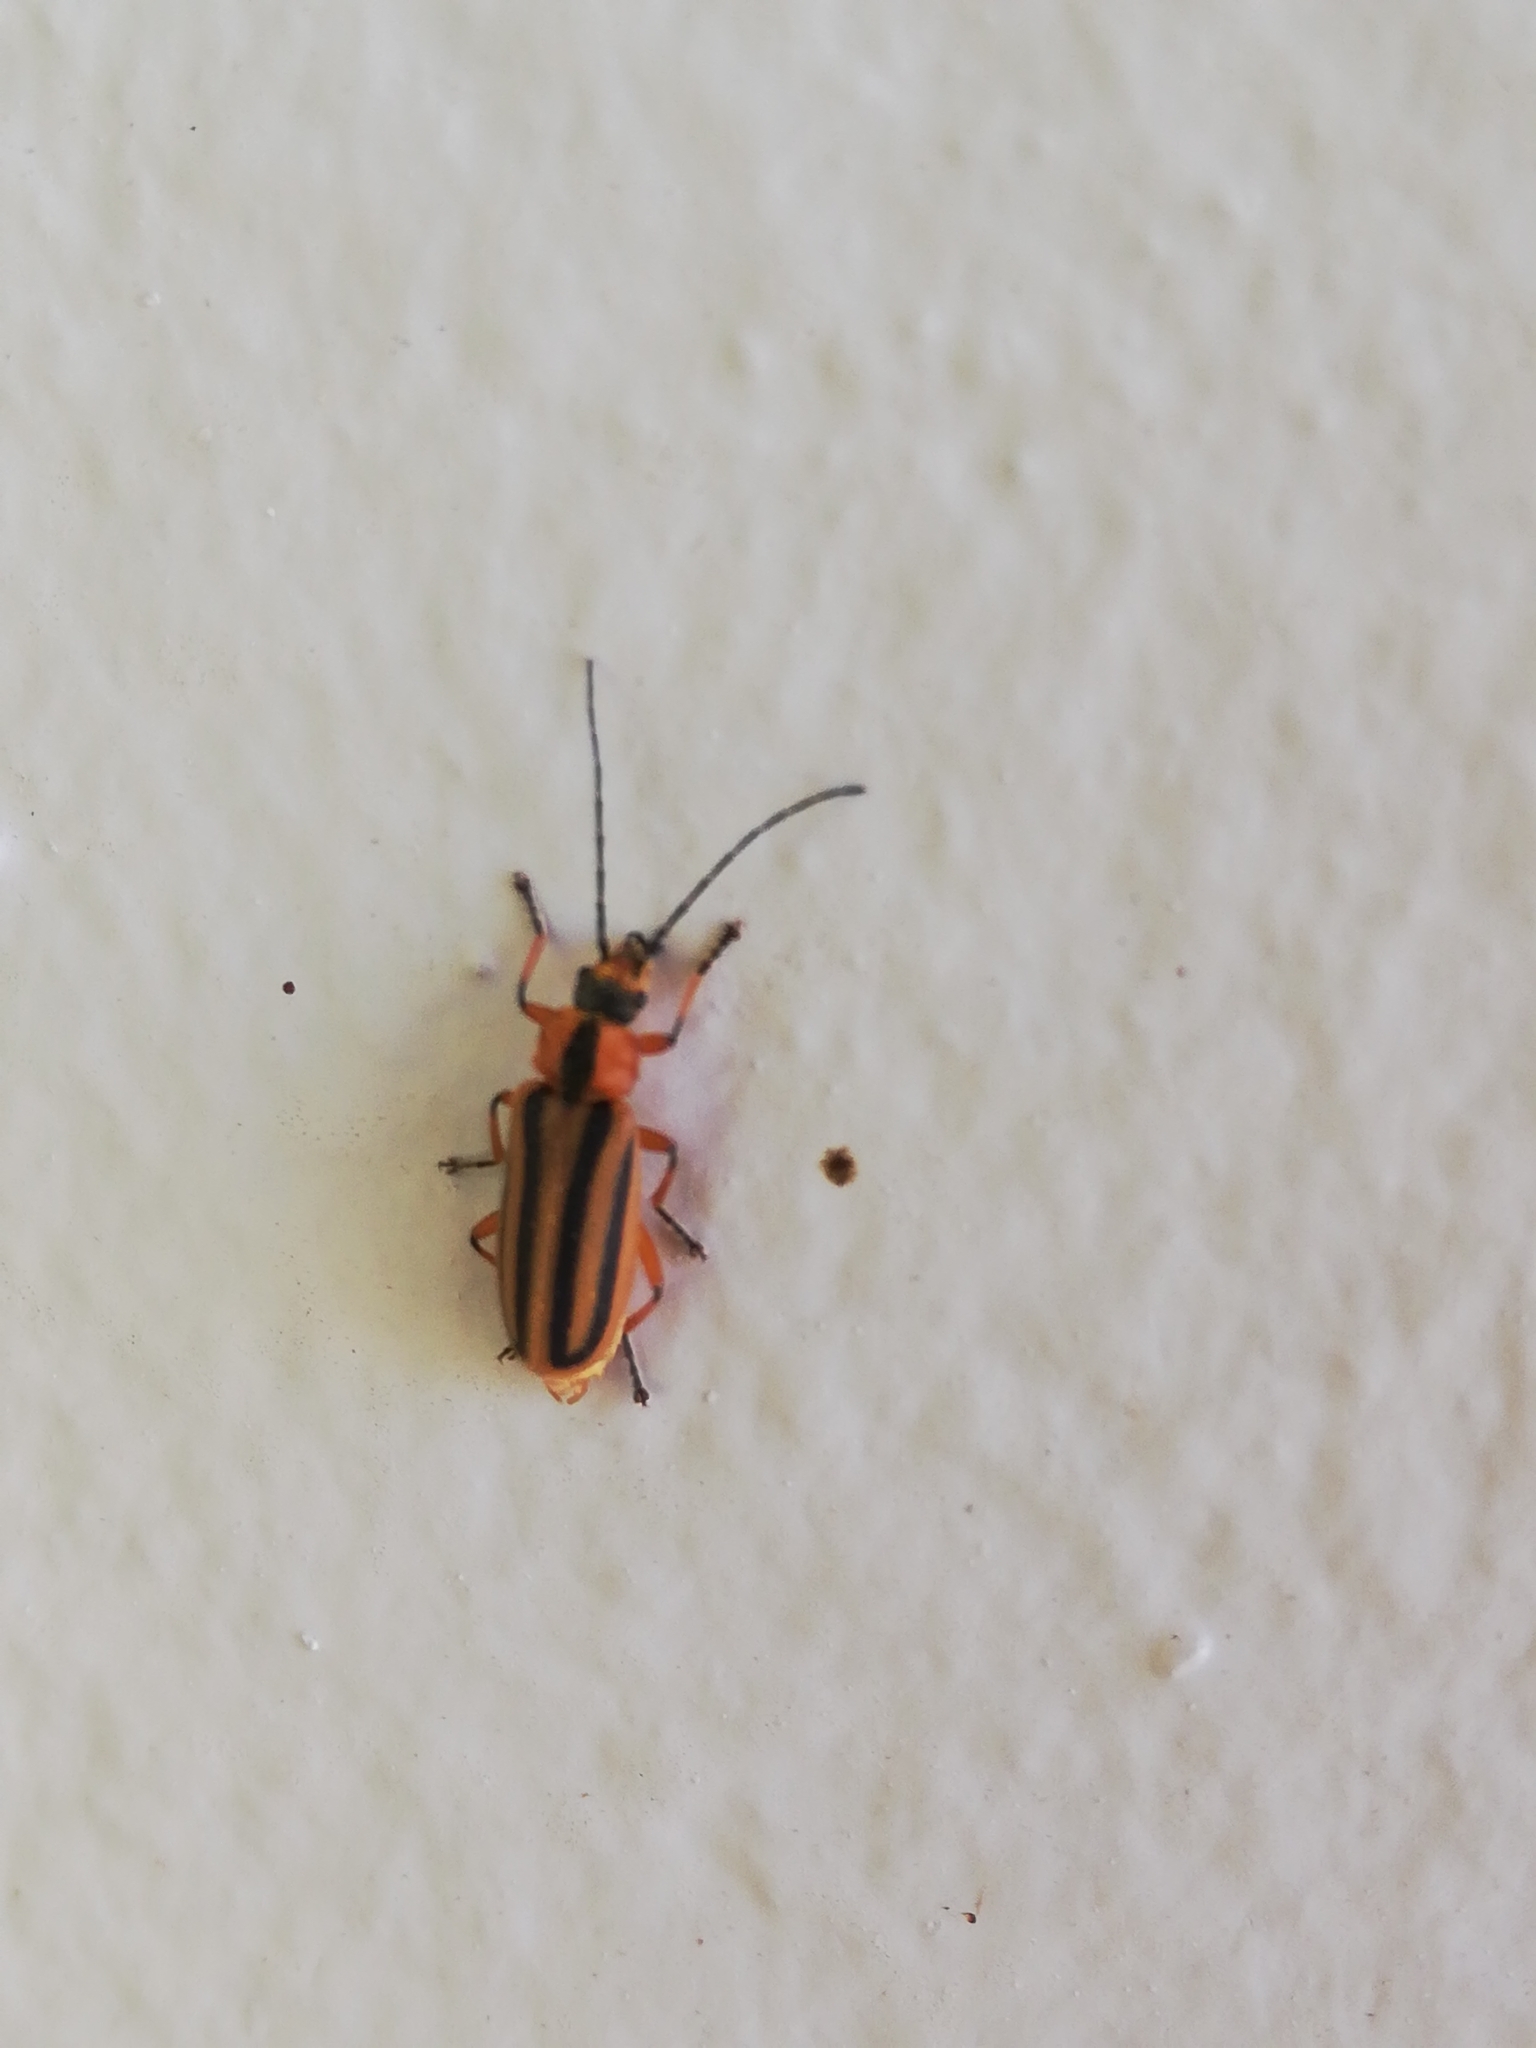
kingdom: Animalia
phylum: Arthropoda
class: Insecta
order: Coleoptera
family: Cantharidae
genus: Afronycha
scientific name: Afronycha
